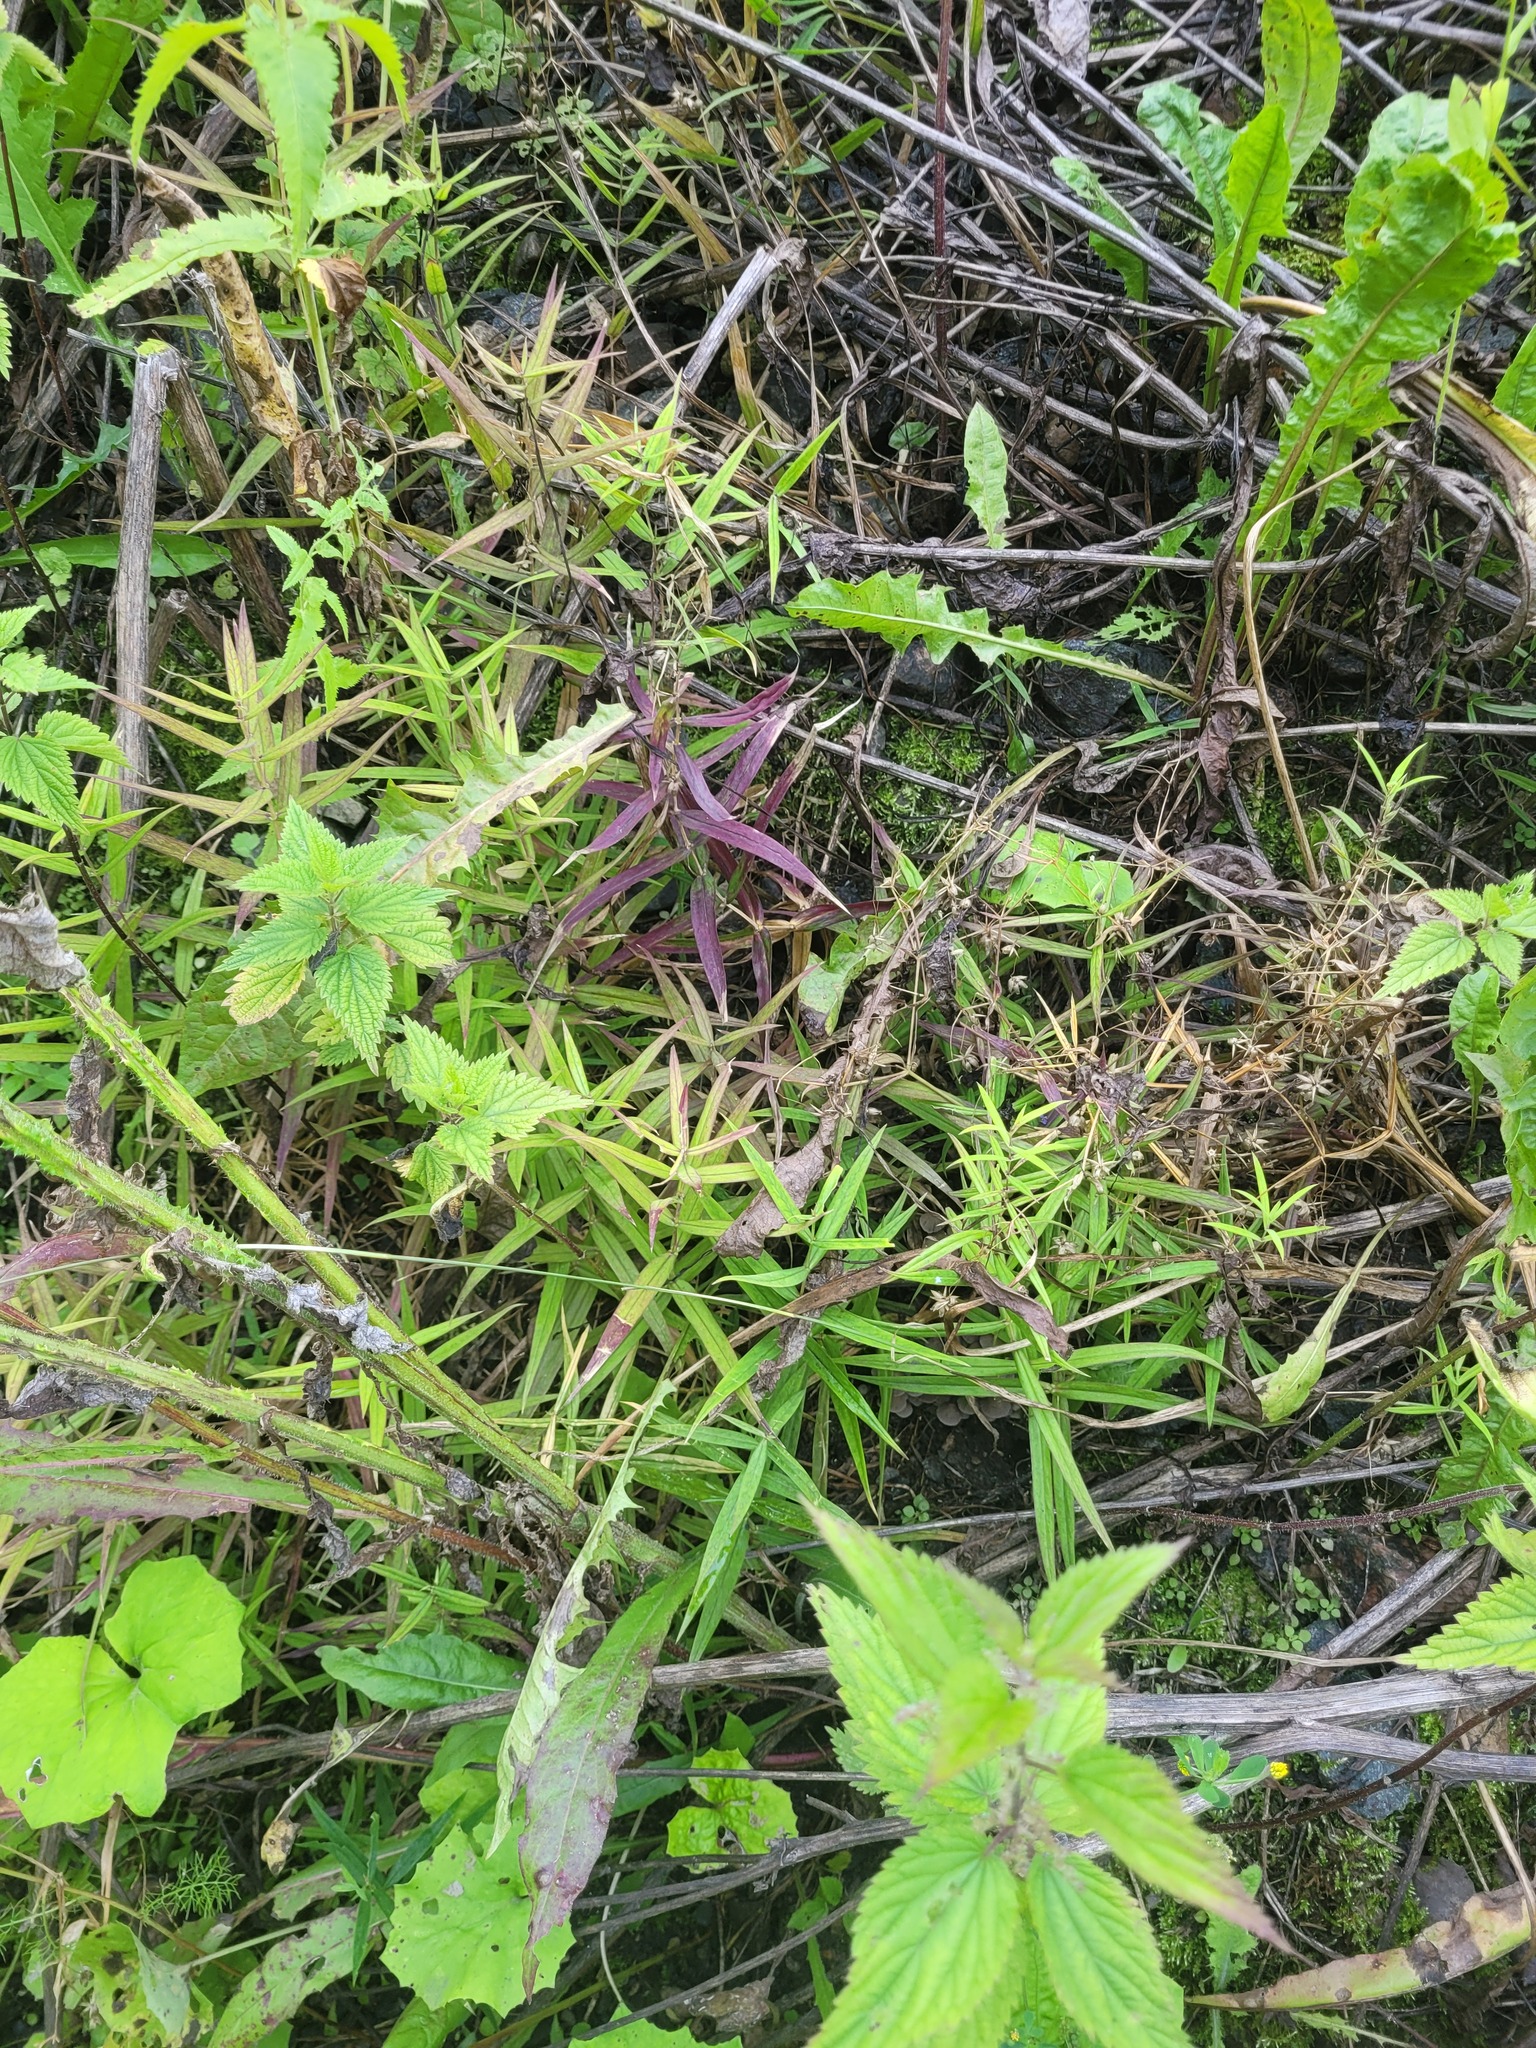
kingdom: Plantae
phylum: Tracheophyta
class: Magnoliopsida
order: Caryophyllales
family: Caryophyllaceae
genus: Rabelera
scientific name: Rabelera holostea
